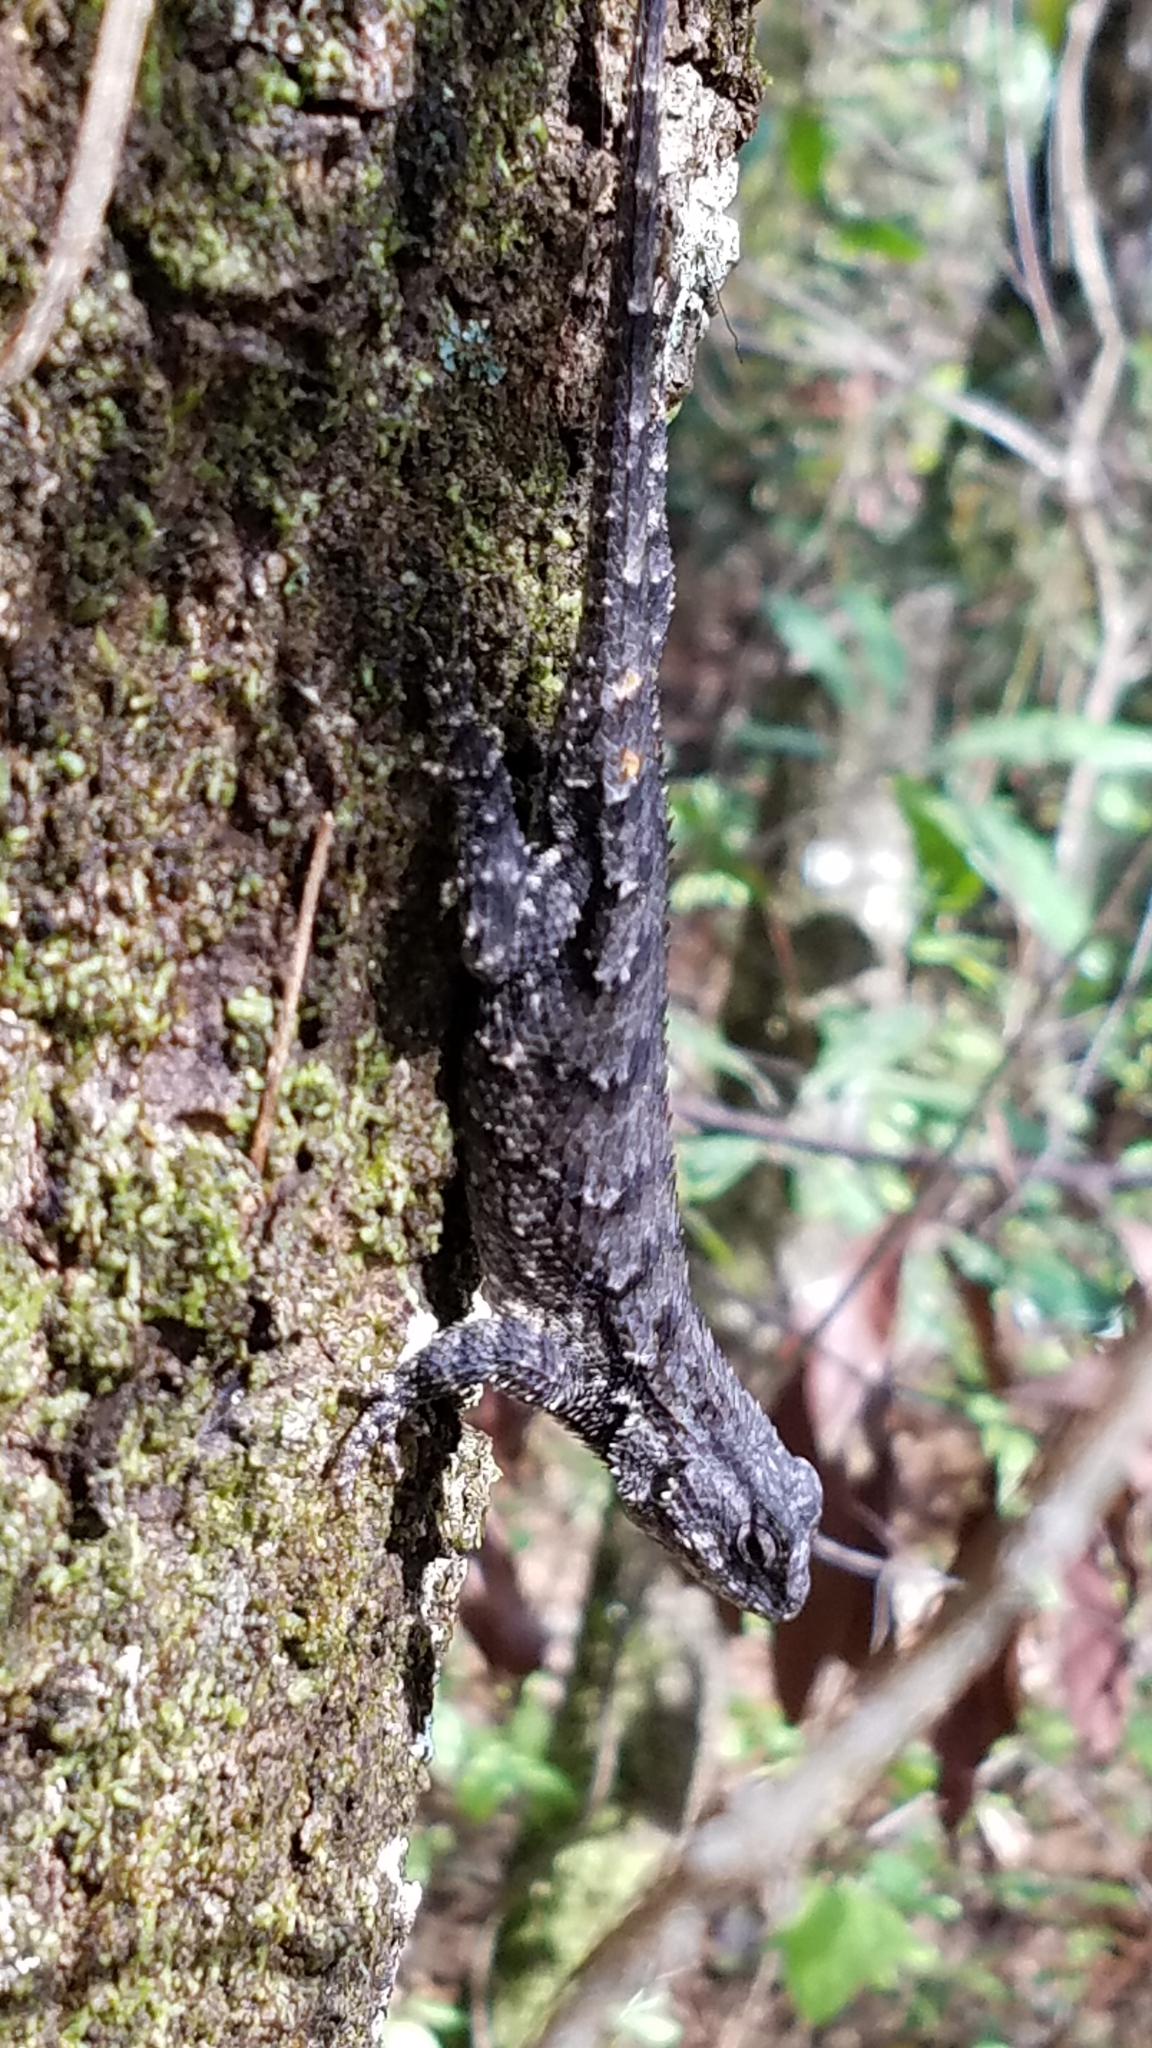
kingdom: Animalia
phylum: Chordata
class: Squamata
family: Phrynosomatidae
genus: Sceloporus
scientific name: Sceloporus undulatus
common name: Eastern fence lizard
